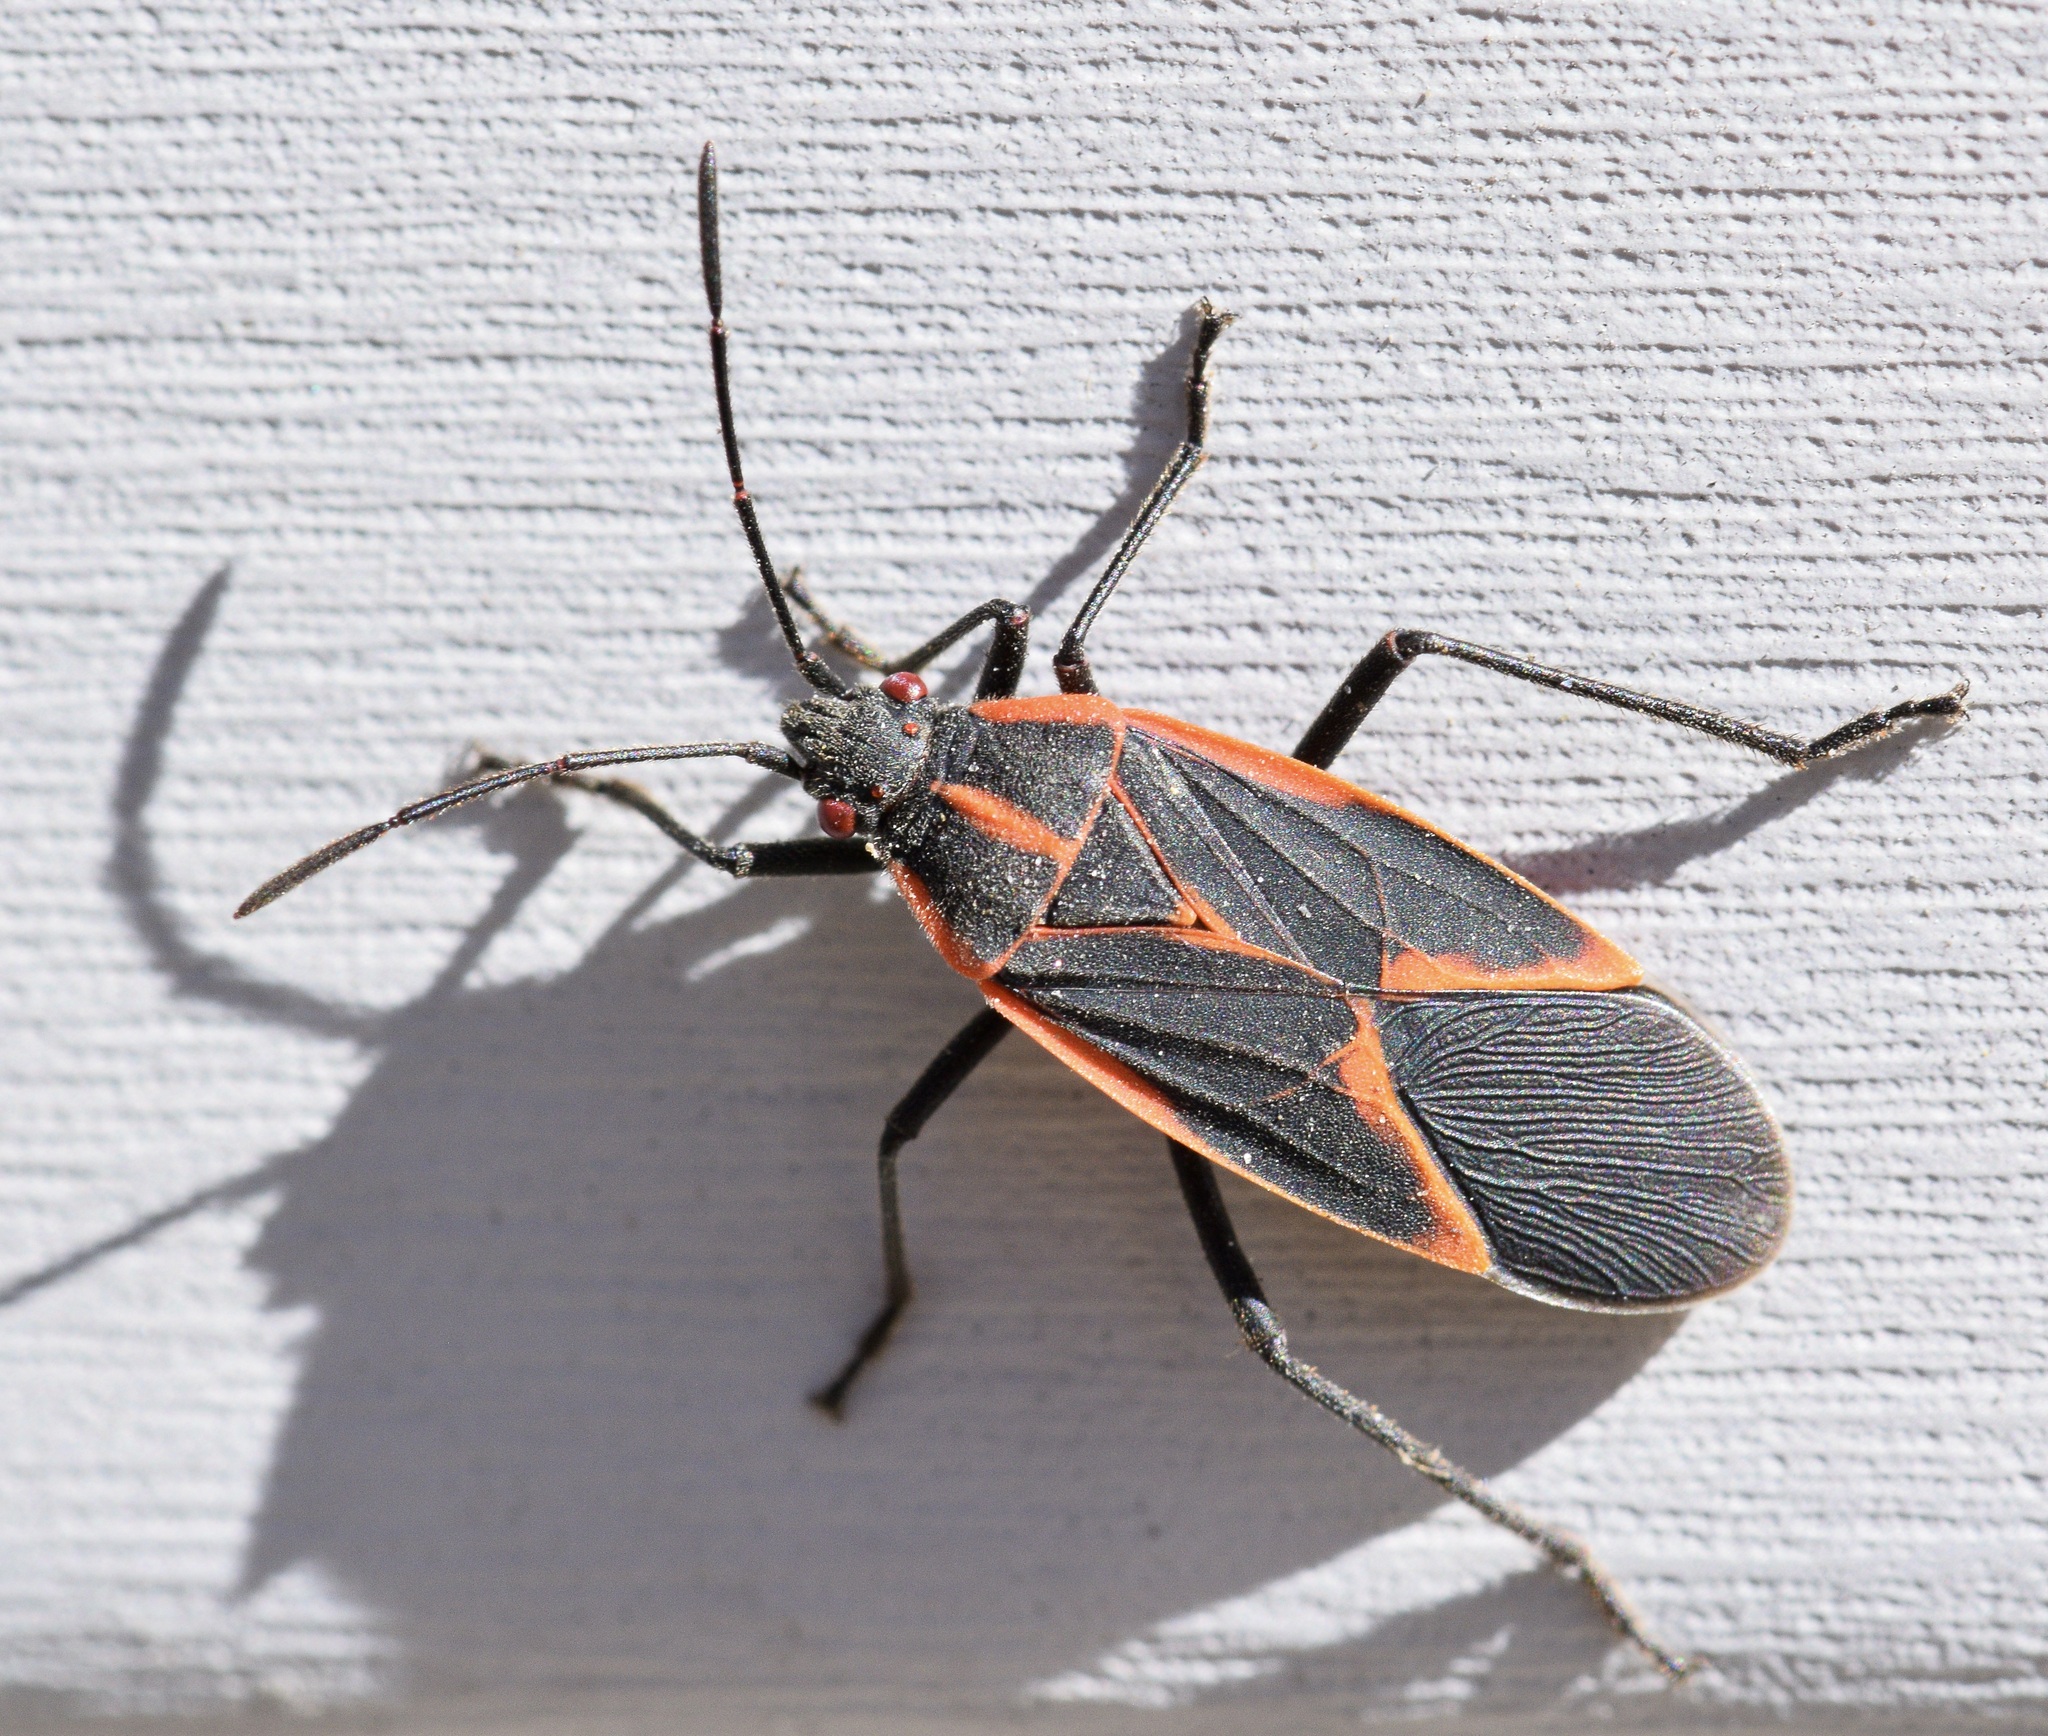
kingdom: Animalia
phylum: Arthropoda
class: Insecta
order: Hemiptera
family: Rhopalidae
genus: Boisea
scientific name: Boisea trivittata
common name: Boxelder bug
